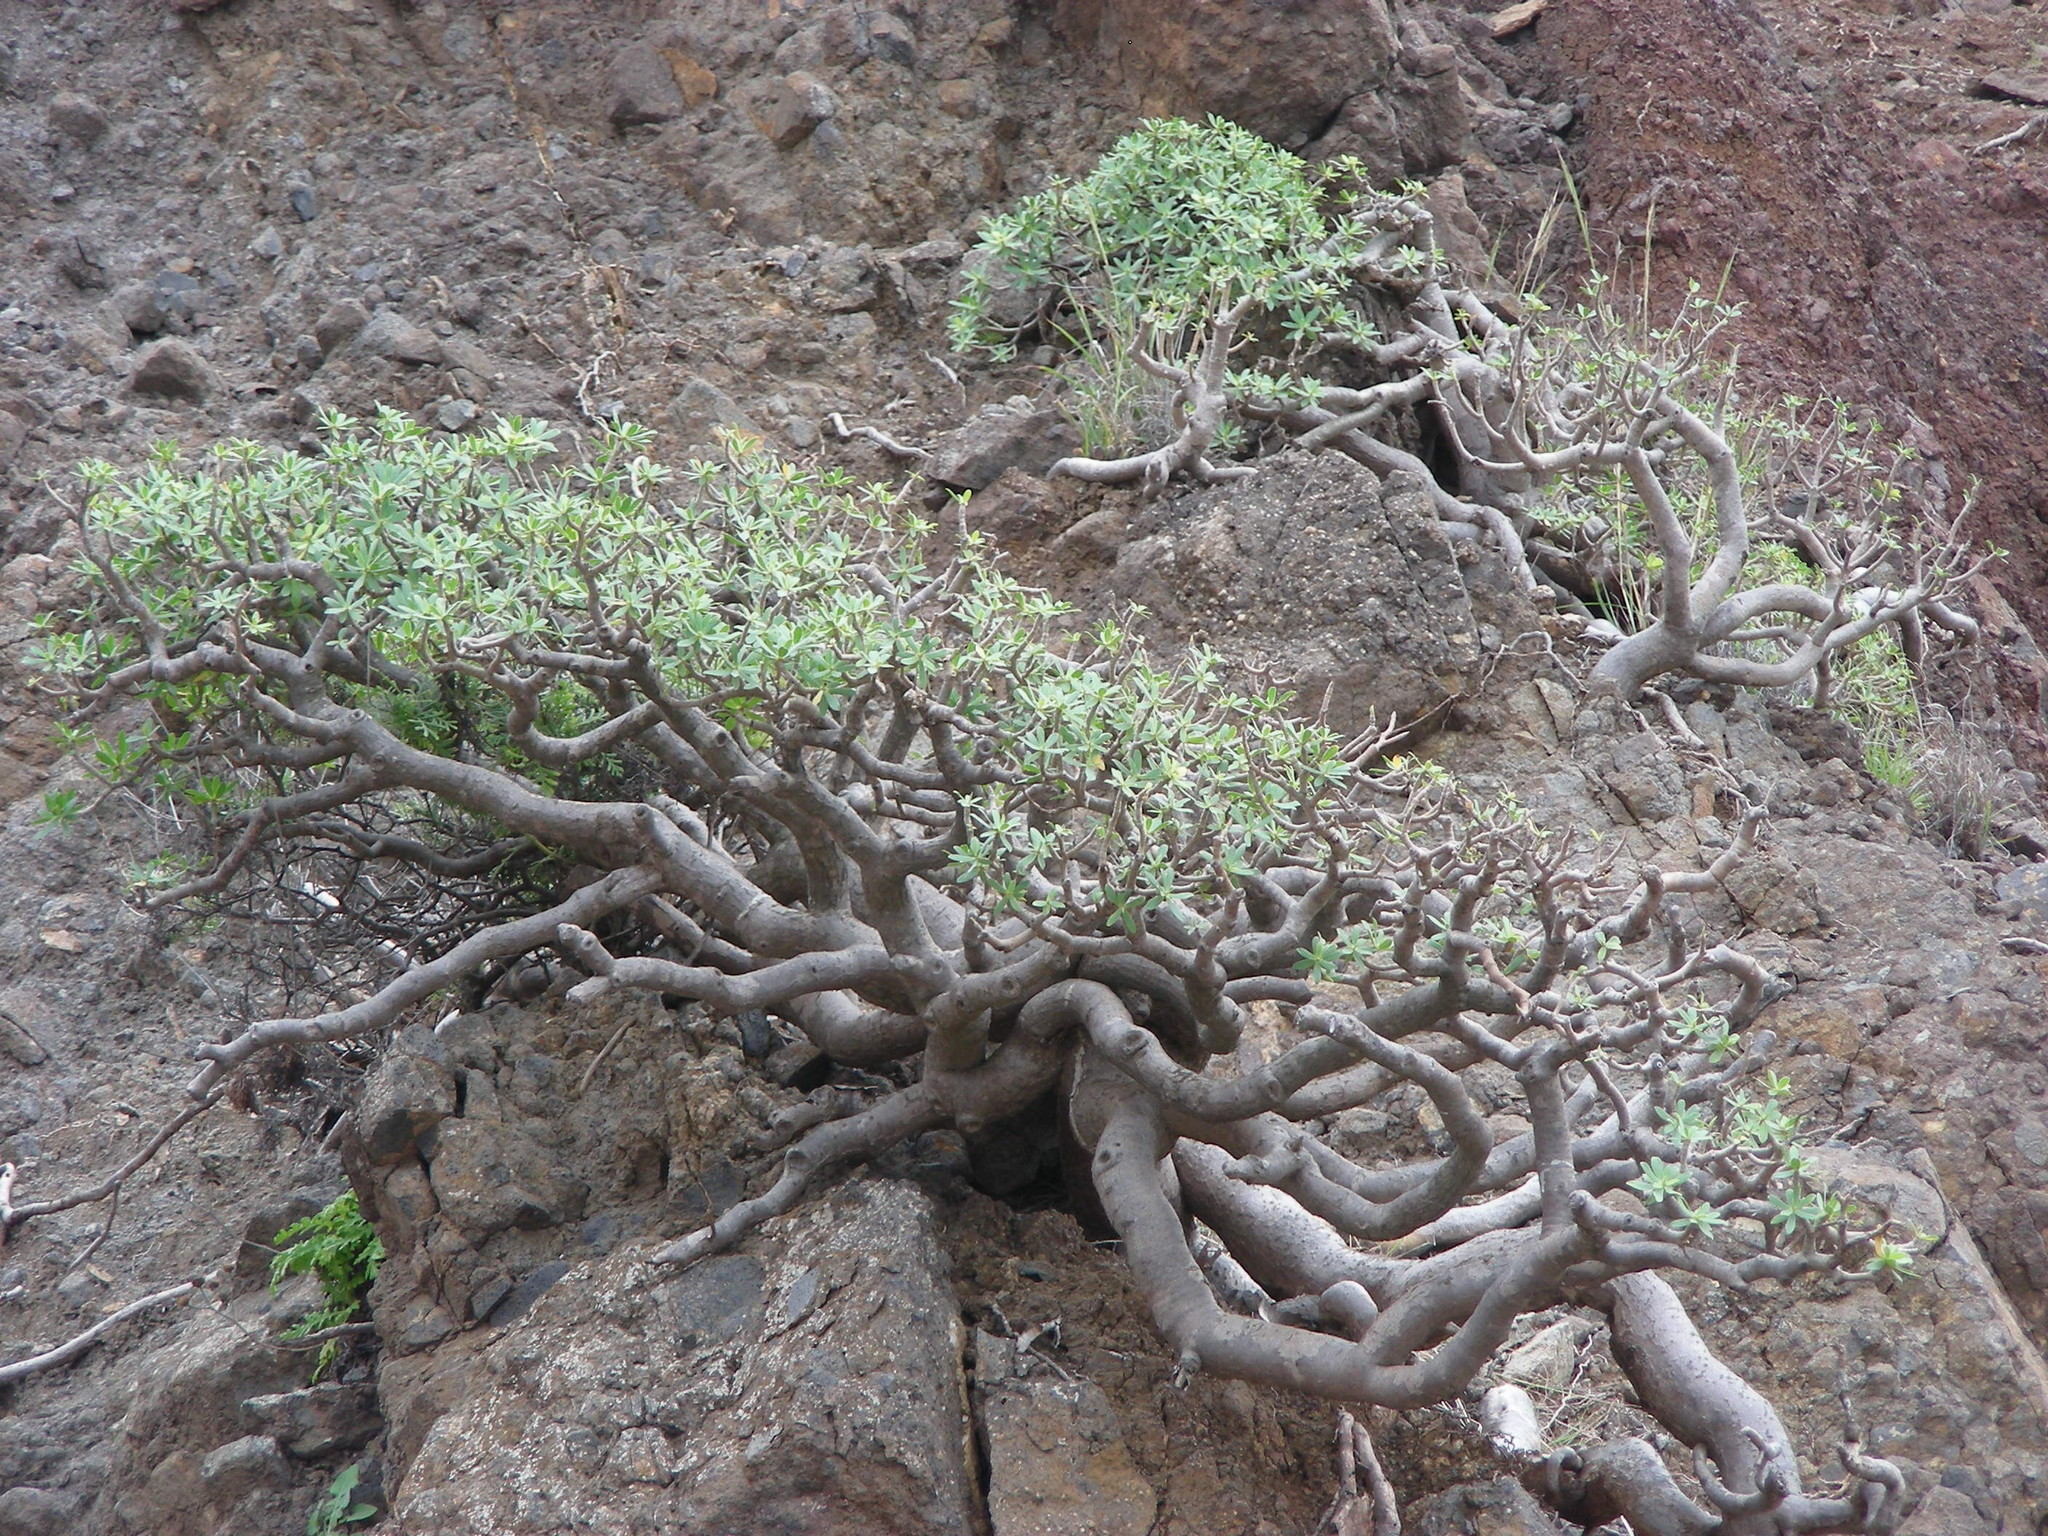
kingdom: Plantae
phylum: Tracheophyta
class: Magnoliopsida
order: Malpighiales
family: Euphorbiaceae
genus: Euphorbia
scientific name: Euphorbia balsamifera
